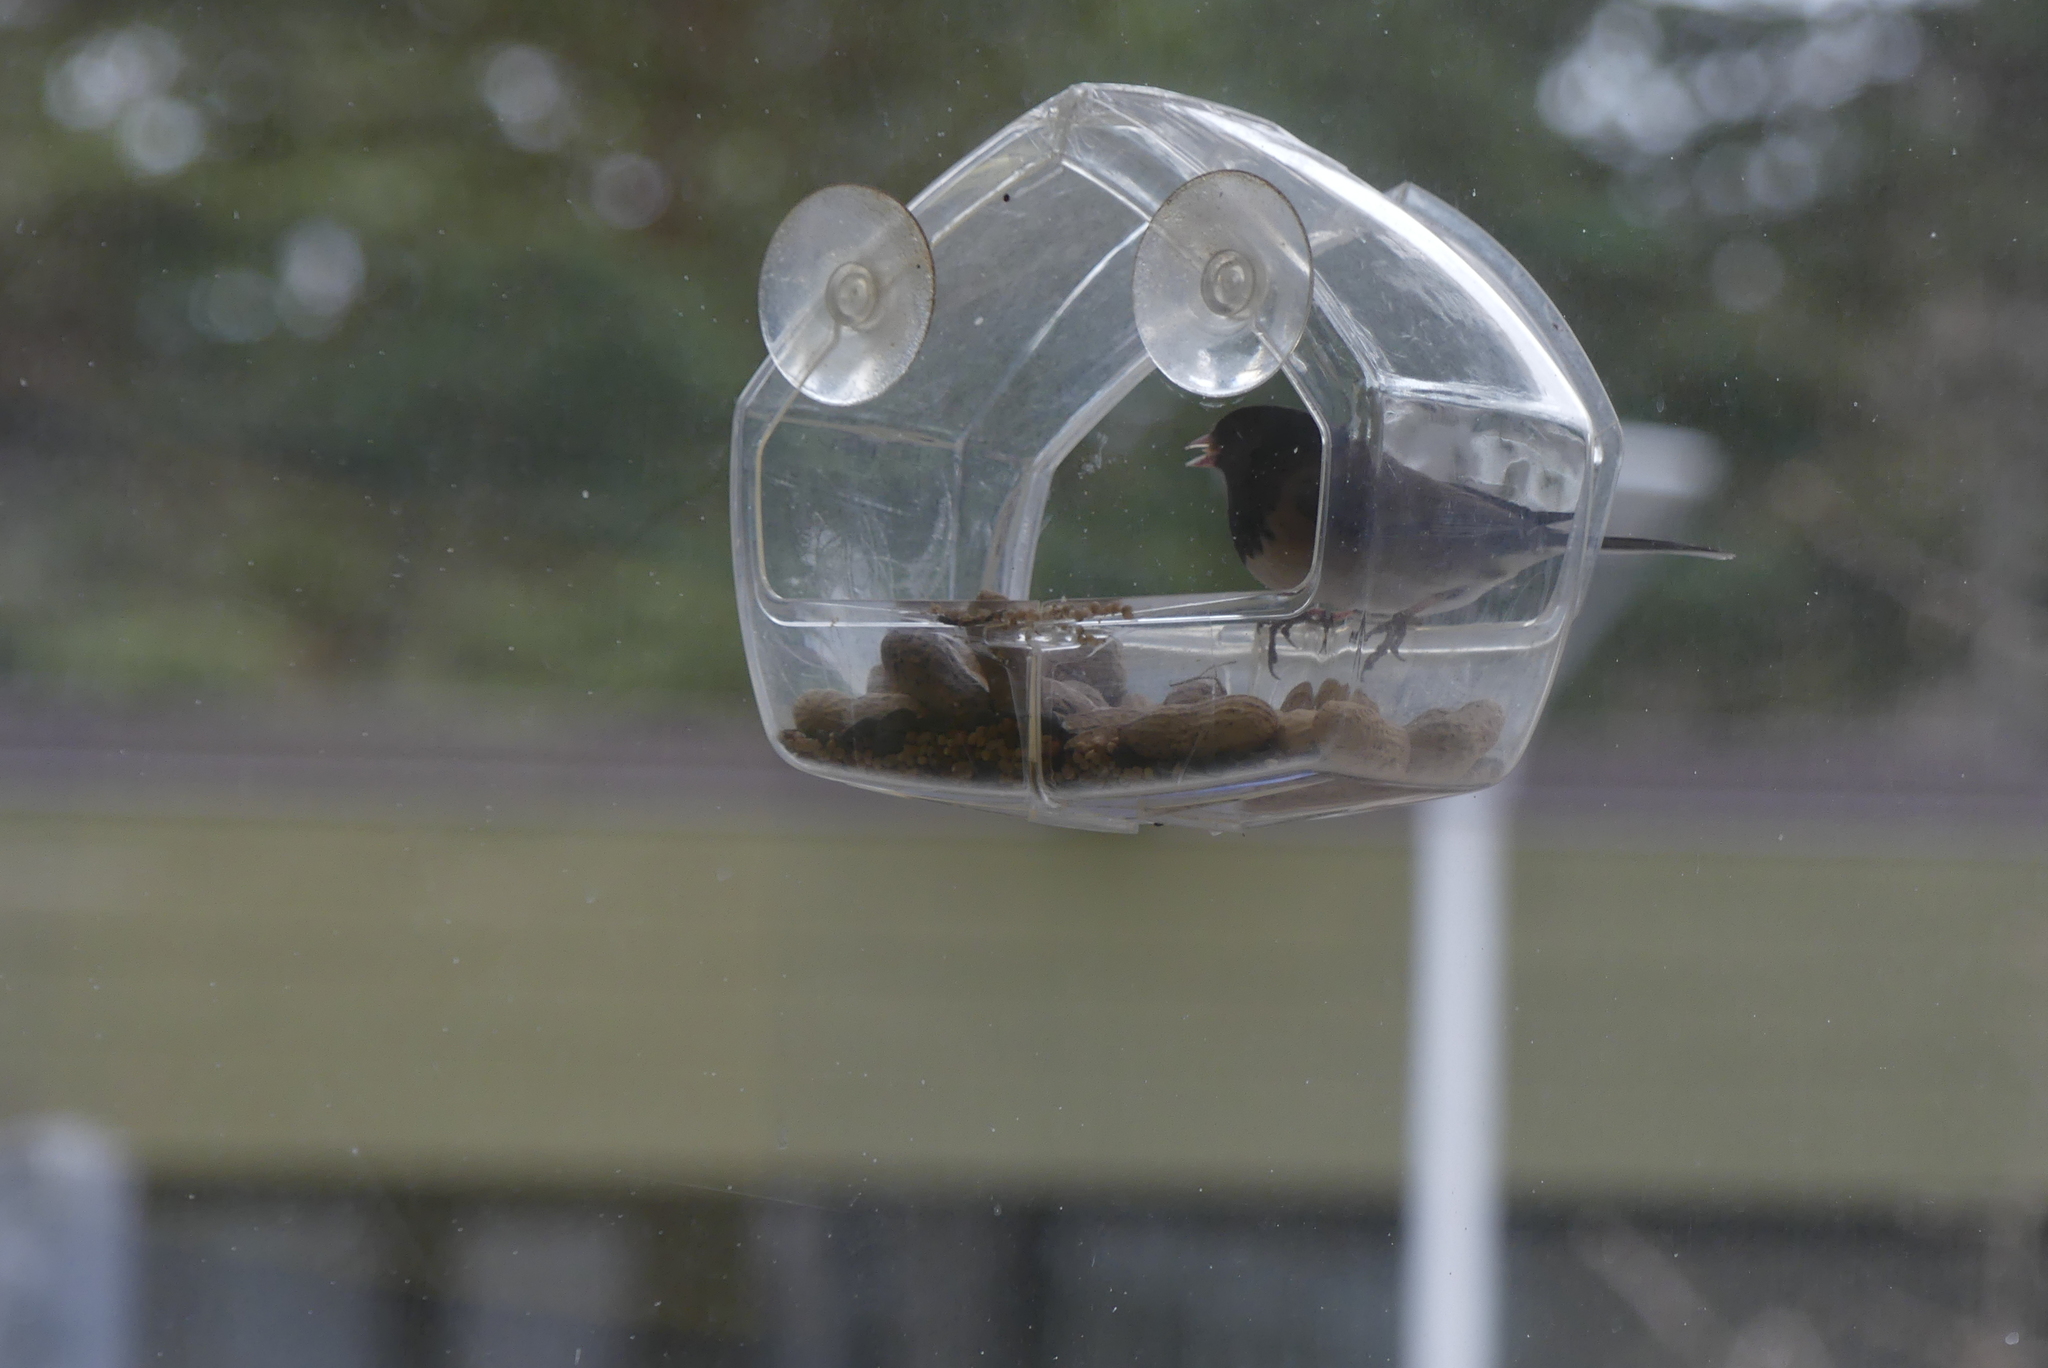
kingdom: Animalia
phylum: Chordata
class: Aves
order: Passeriformes
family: Passerellidae
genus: Junco
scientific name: Junco hyemalis
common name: Dark-eyed junco
